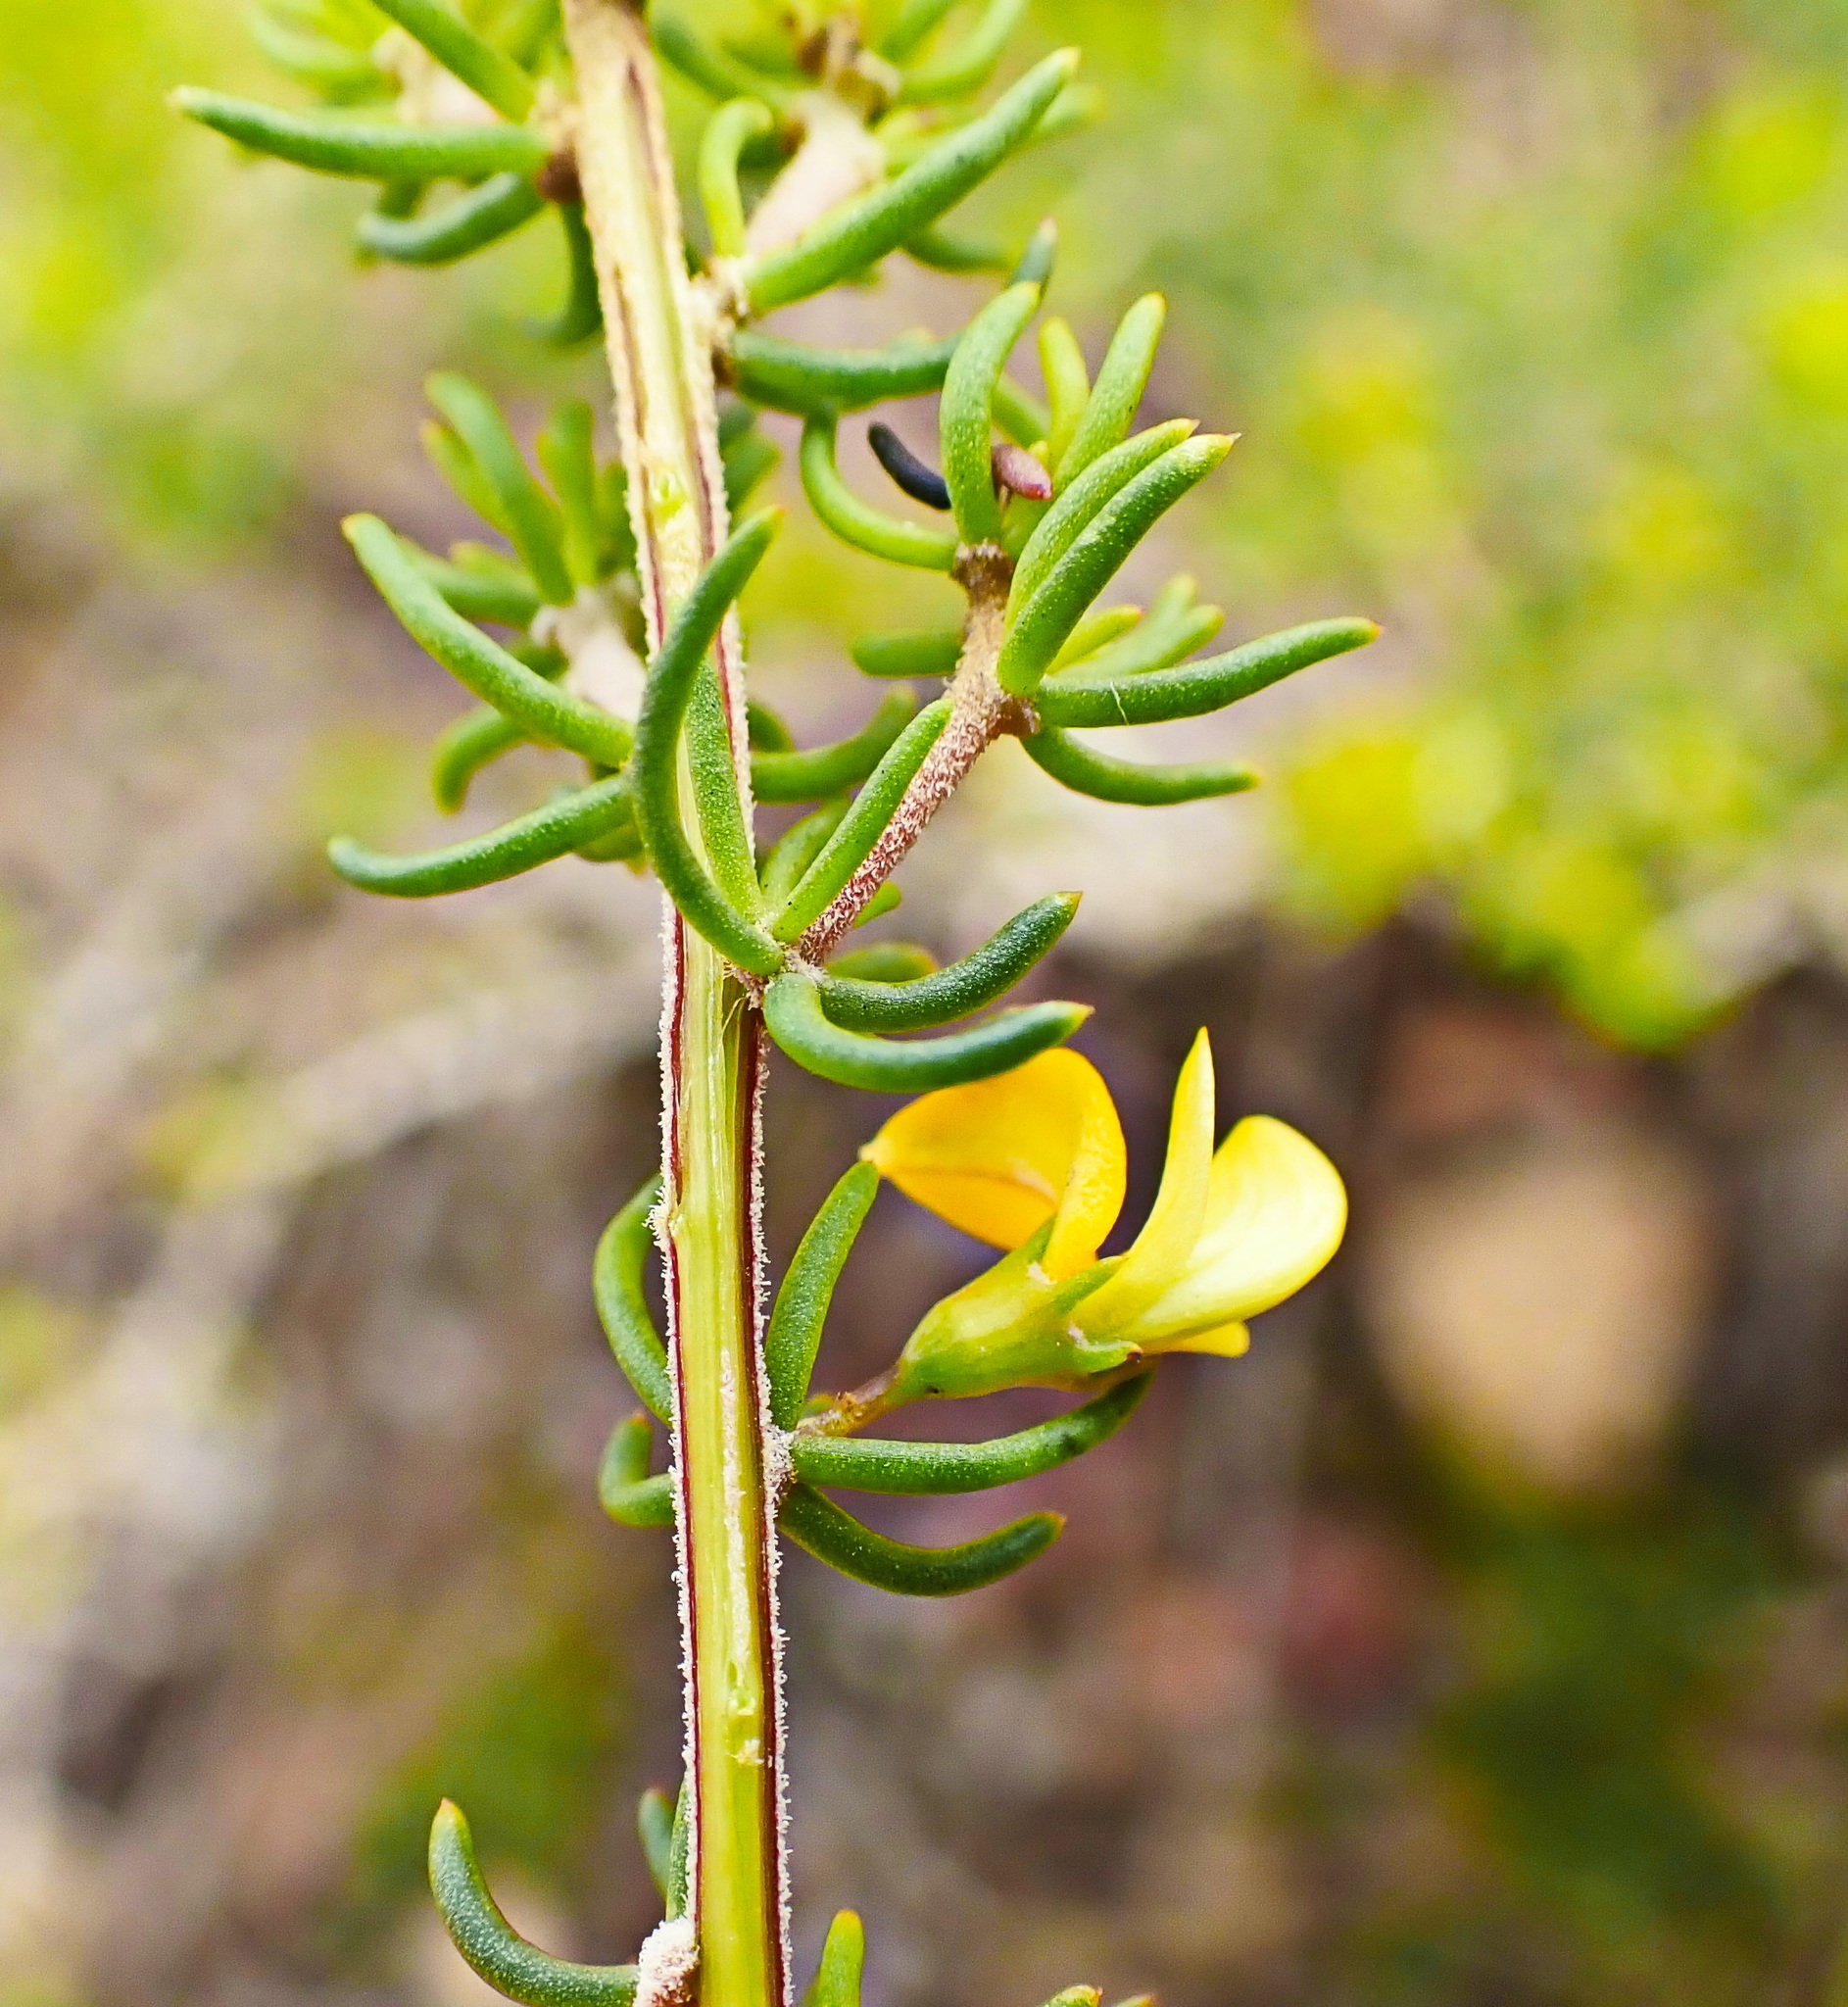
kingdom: Plantae
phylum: Tracheophyta
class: Magnoliopsida
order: Fabales
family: Fabaceae
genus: Aspalathus
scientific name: Aspalathus subtingens
